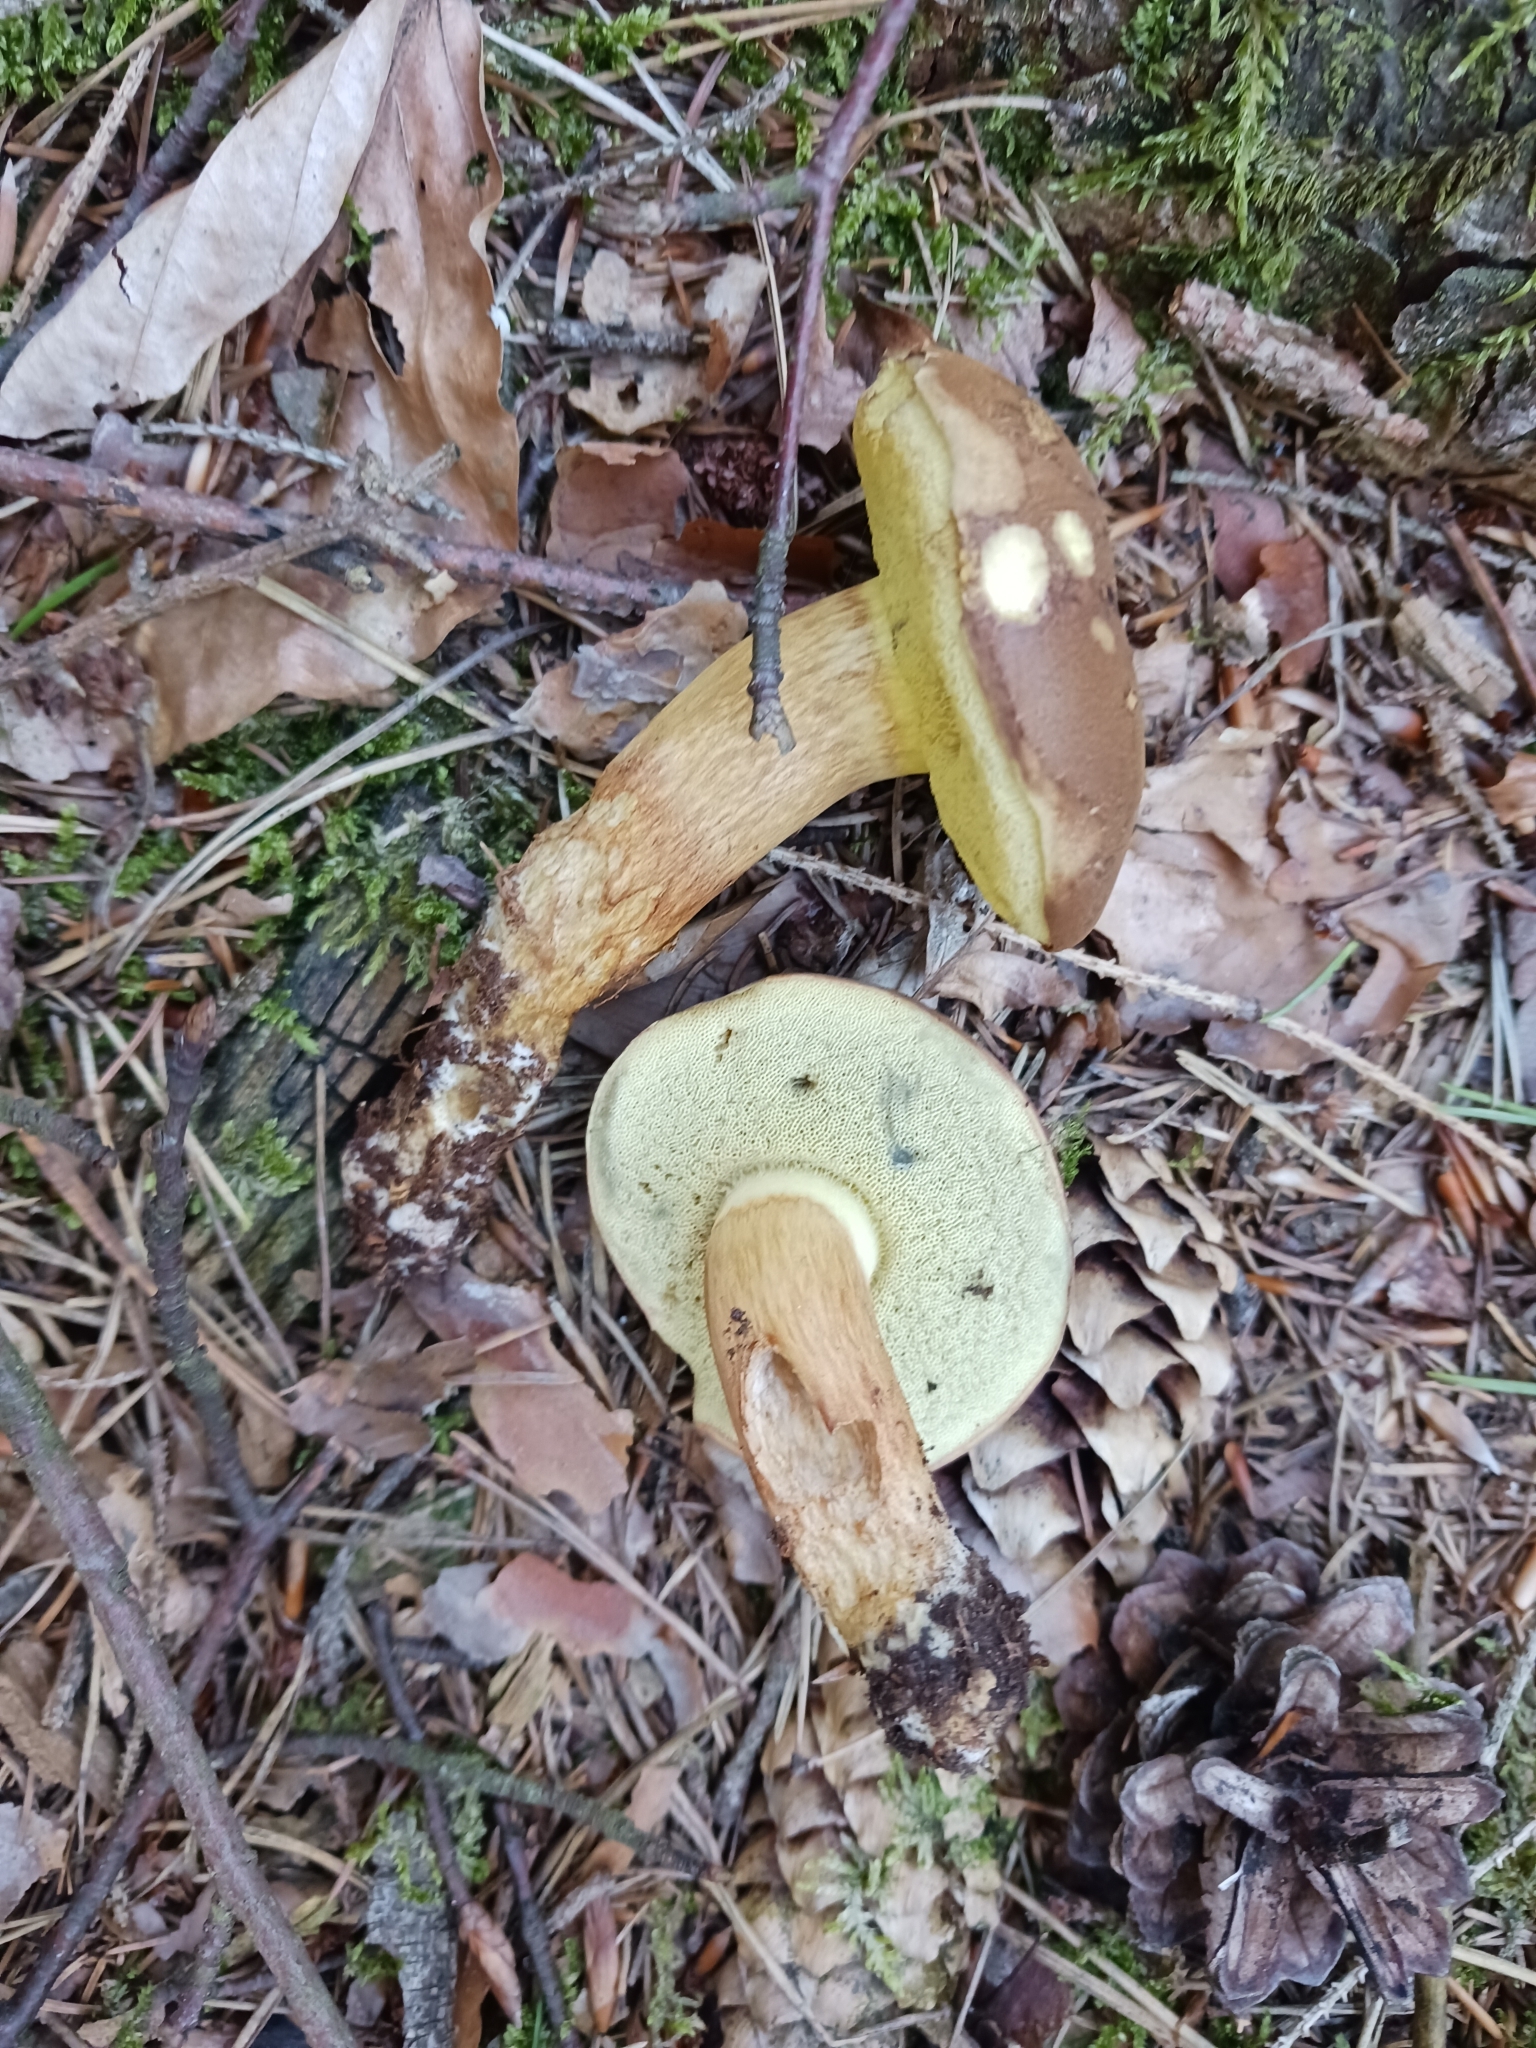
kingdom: Fungi
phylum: Basidiomycota
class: Agaricomycetes
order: Boletales
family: Boletaceae
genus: Imleria
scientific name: Imleria badia
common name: Bay bolete
